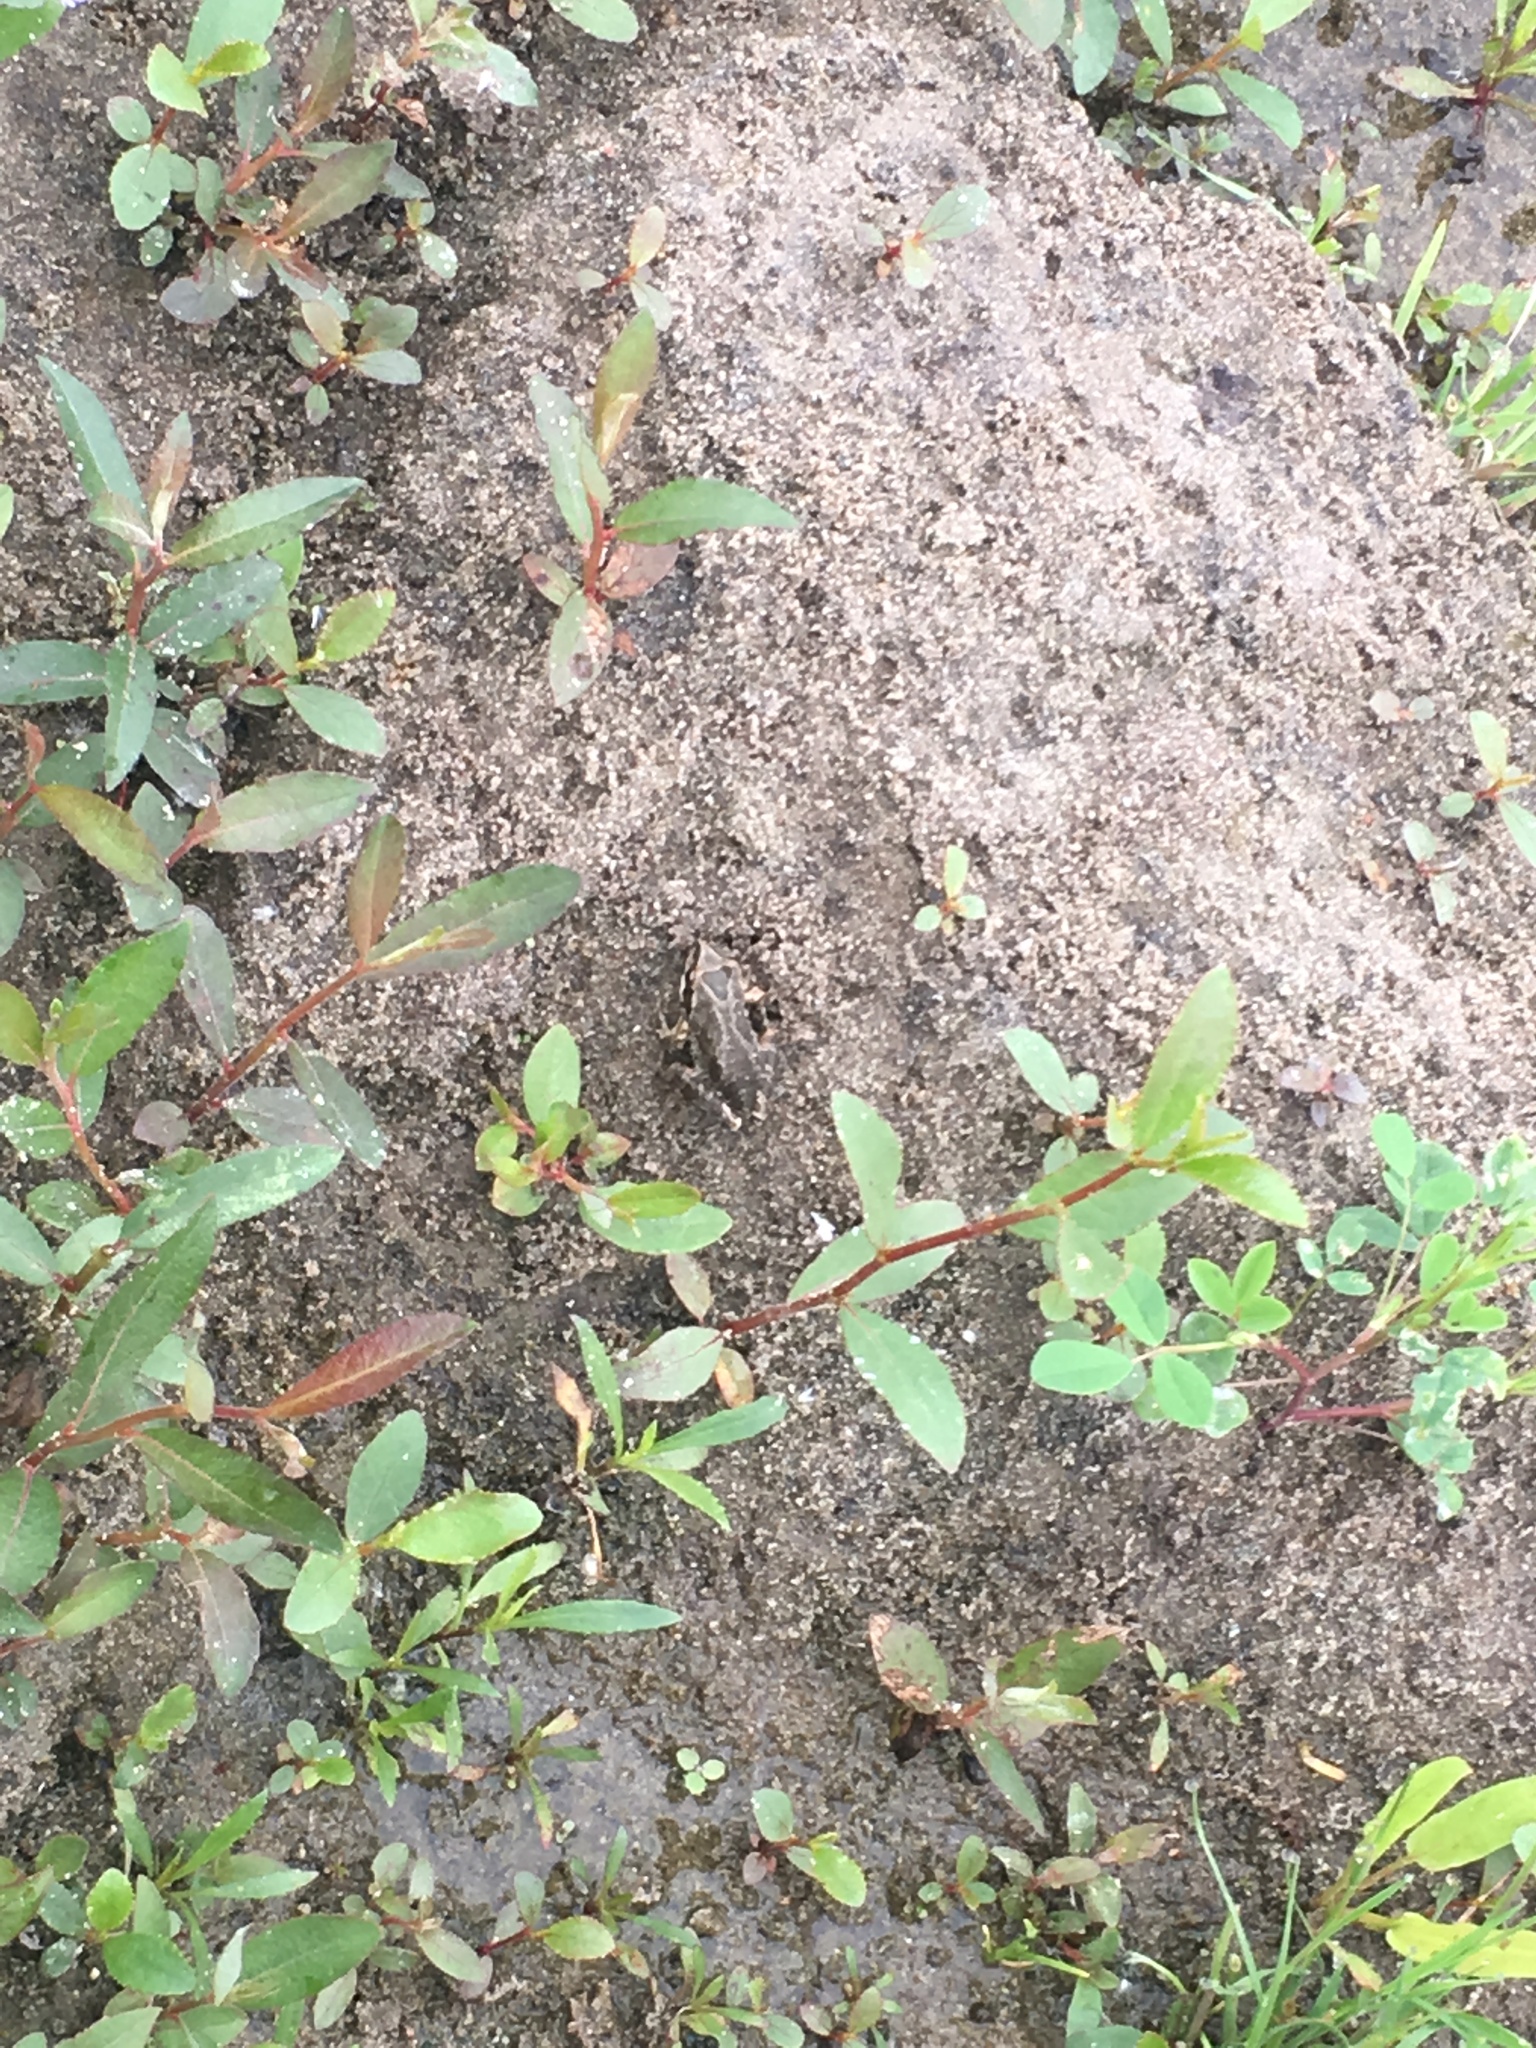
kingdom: Animalia
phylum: Chordata
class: Amphibia
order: Anura
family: Hylidae
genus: Pseudacris
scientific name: Pseudacris regilla
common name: Pacific chorus frog
